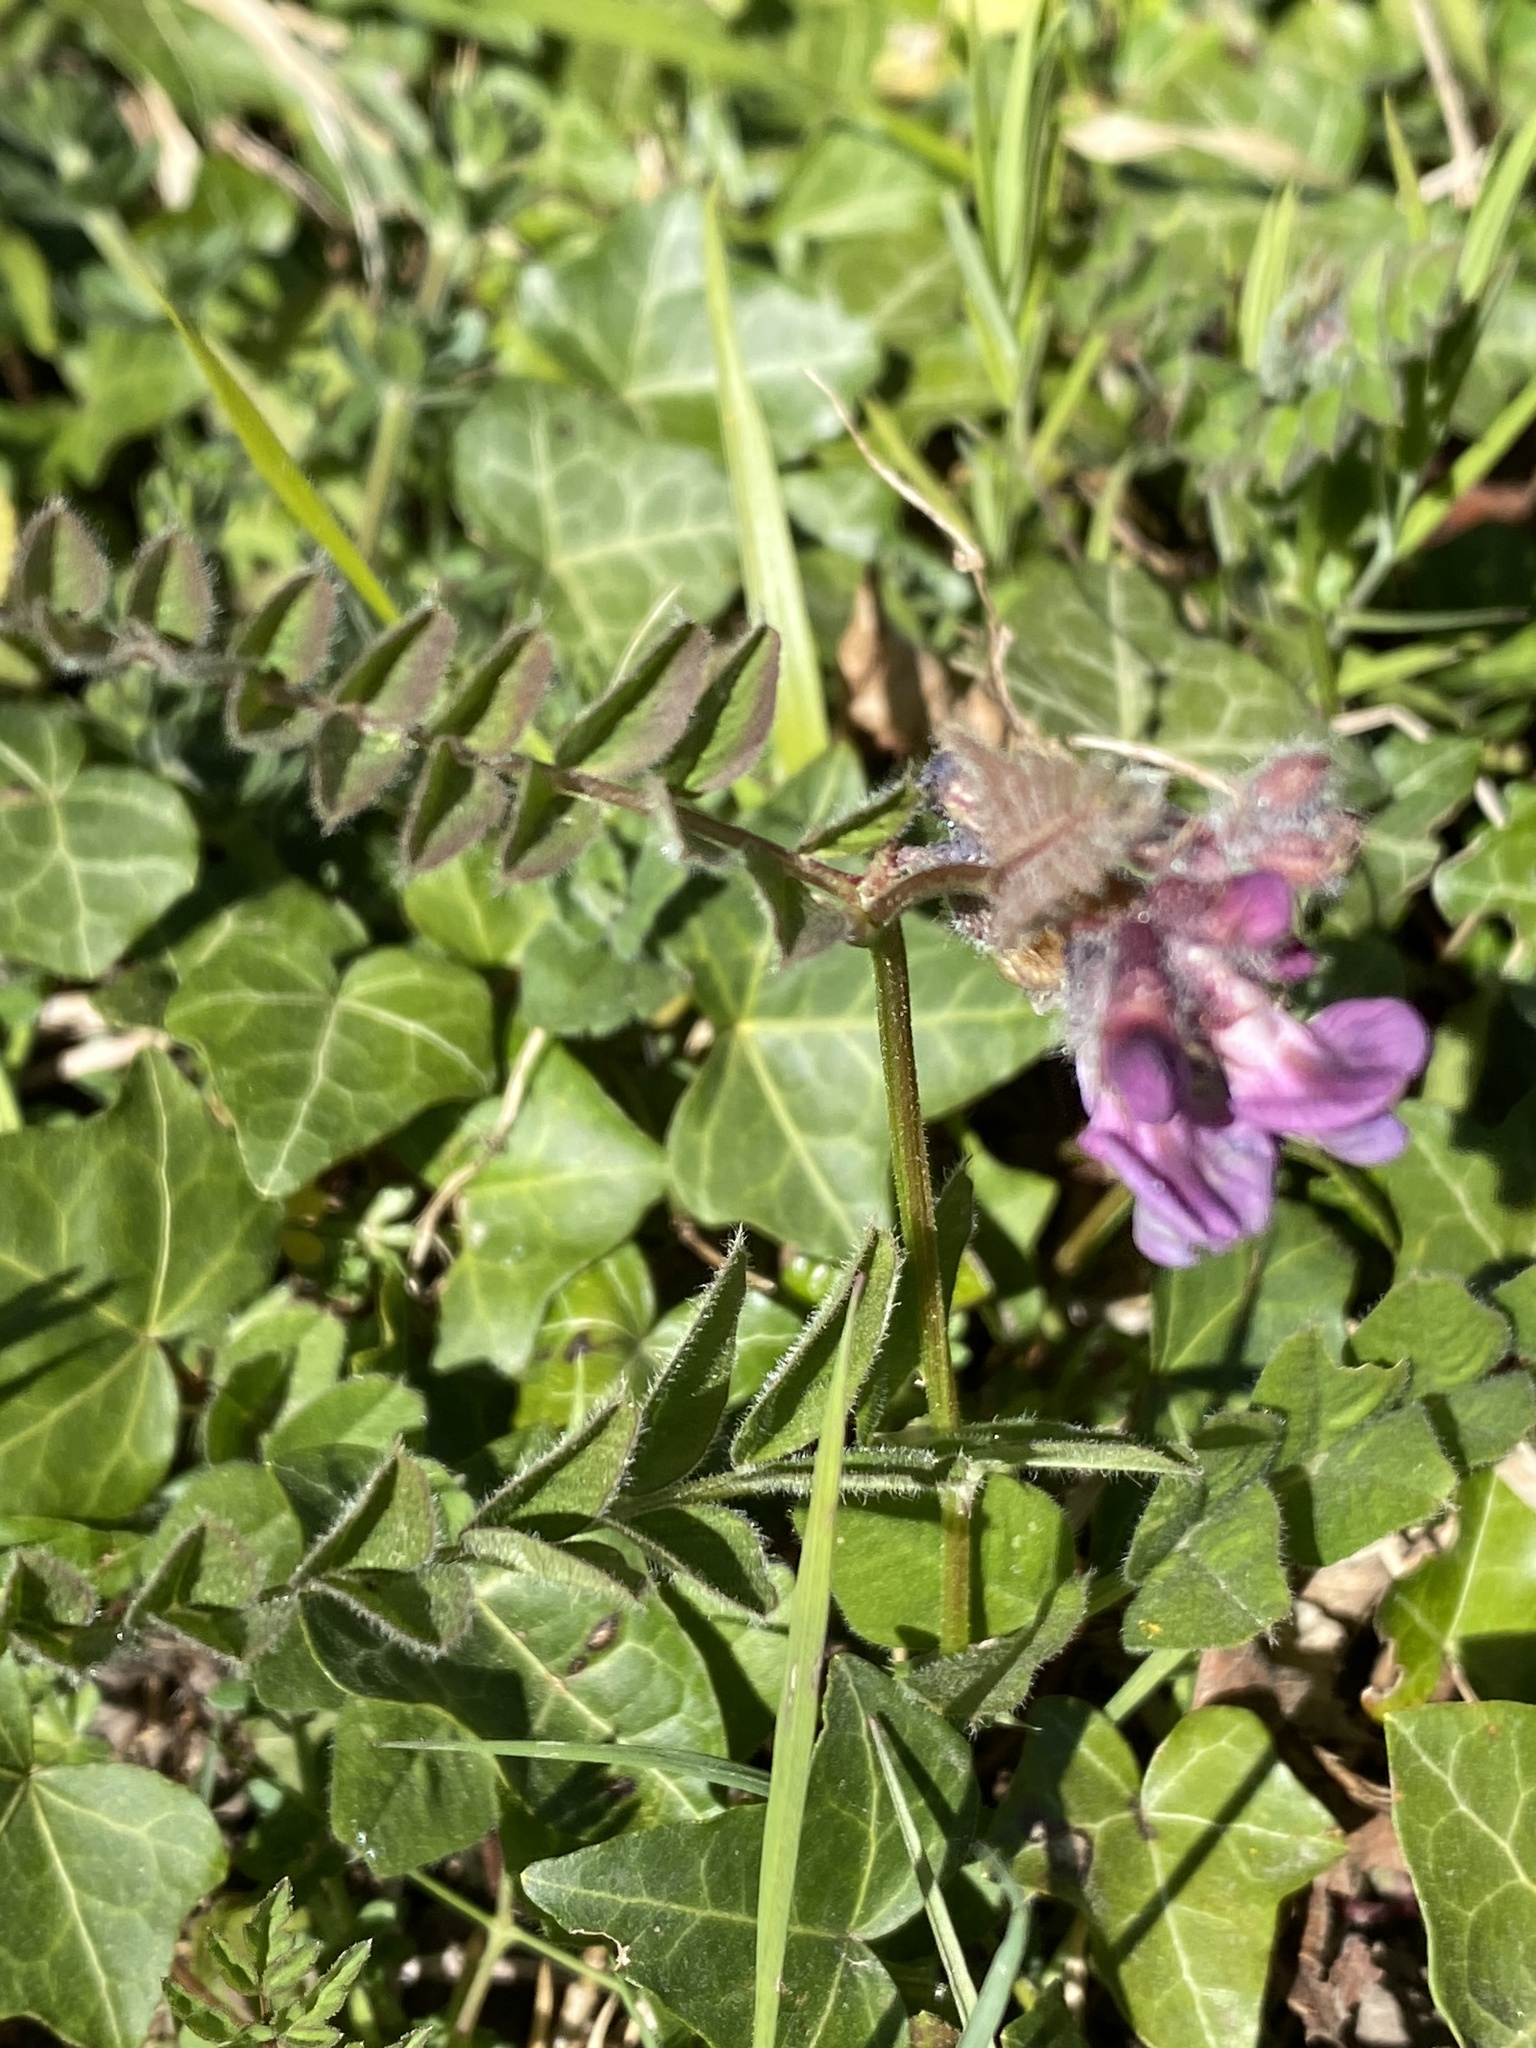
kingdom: Plantae
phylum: Tracheophyta
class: Magnoliopsida
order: Fabales
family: Fabaceae
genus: Vicia
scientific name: Vicia sepium
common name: Bush vetch
